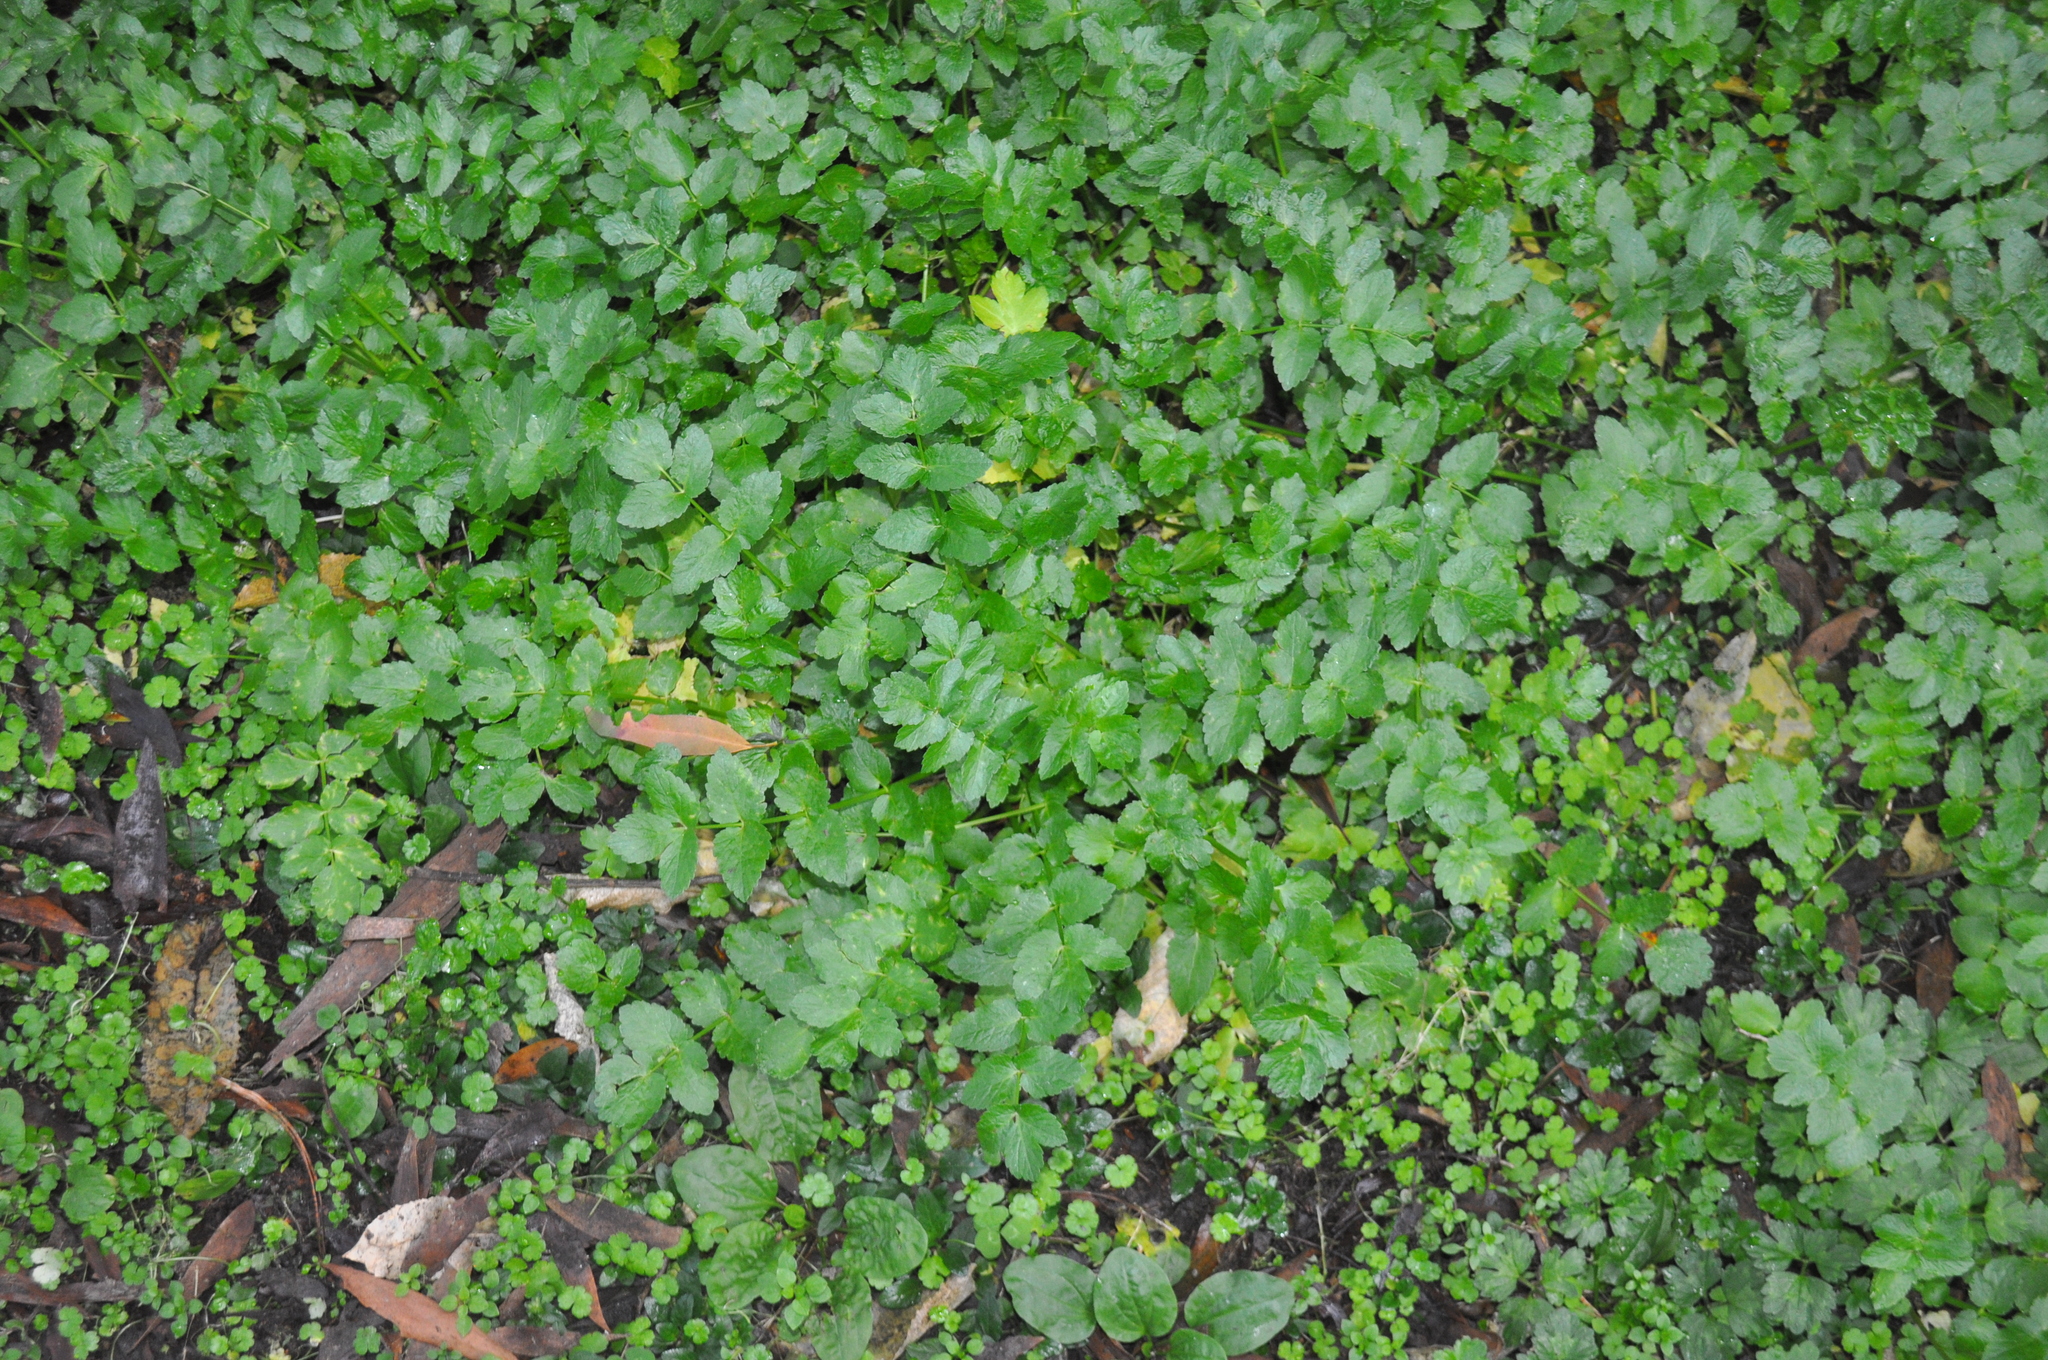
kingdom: Plantae
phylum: Tracheophyta
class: Magnoliopsida
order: Apiales
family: Apiaceae
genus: Helosciadium
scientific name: Helosciadium nodiflorum
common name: Fool's-watercress
